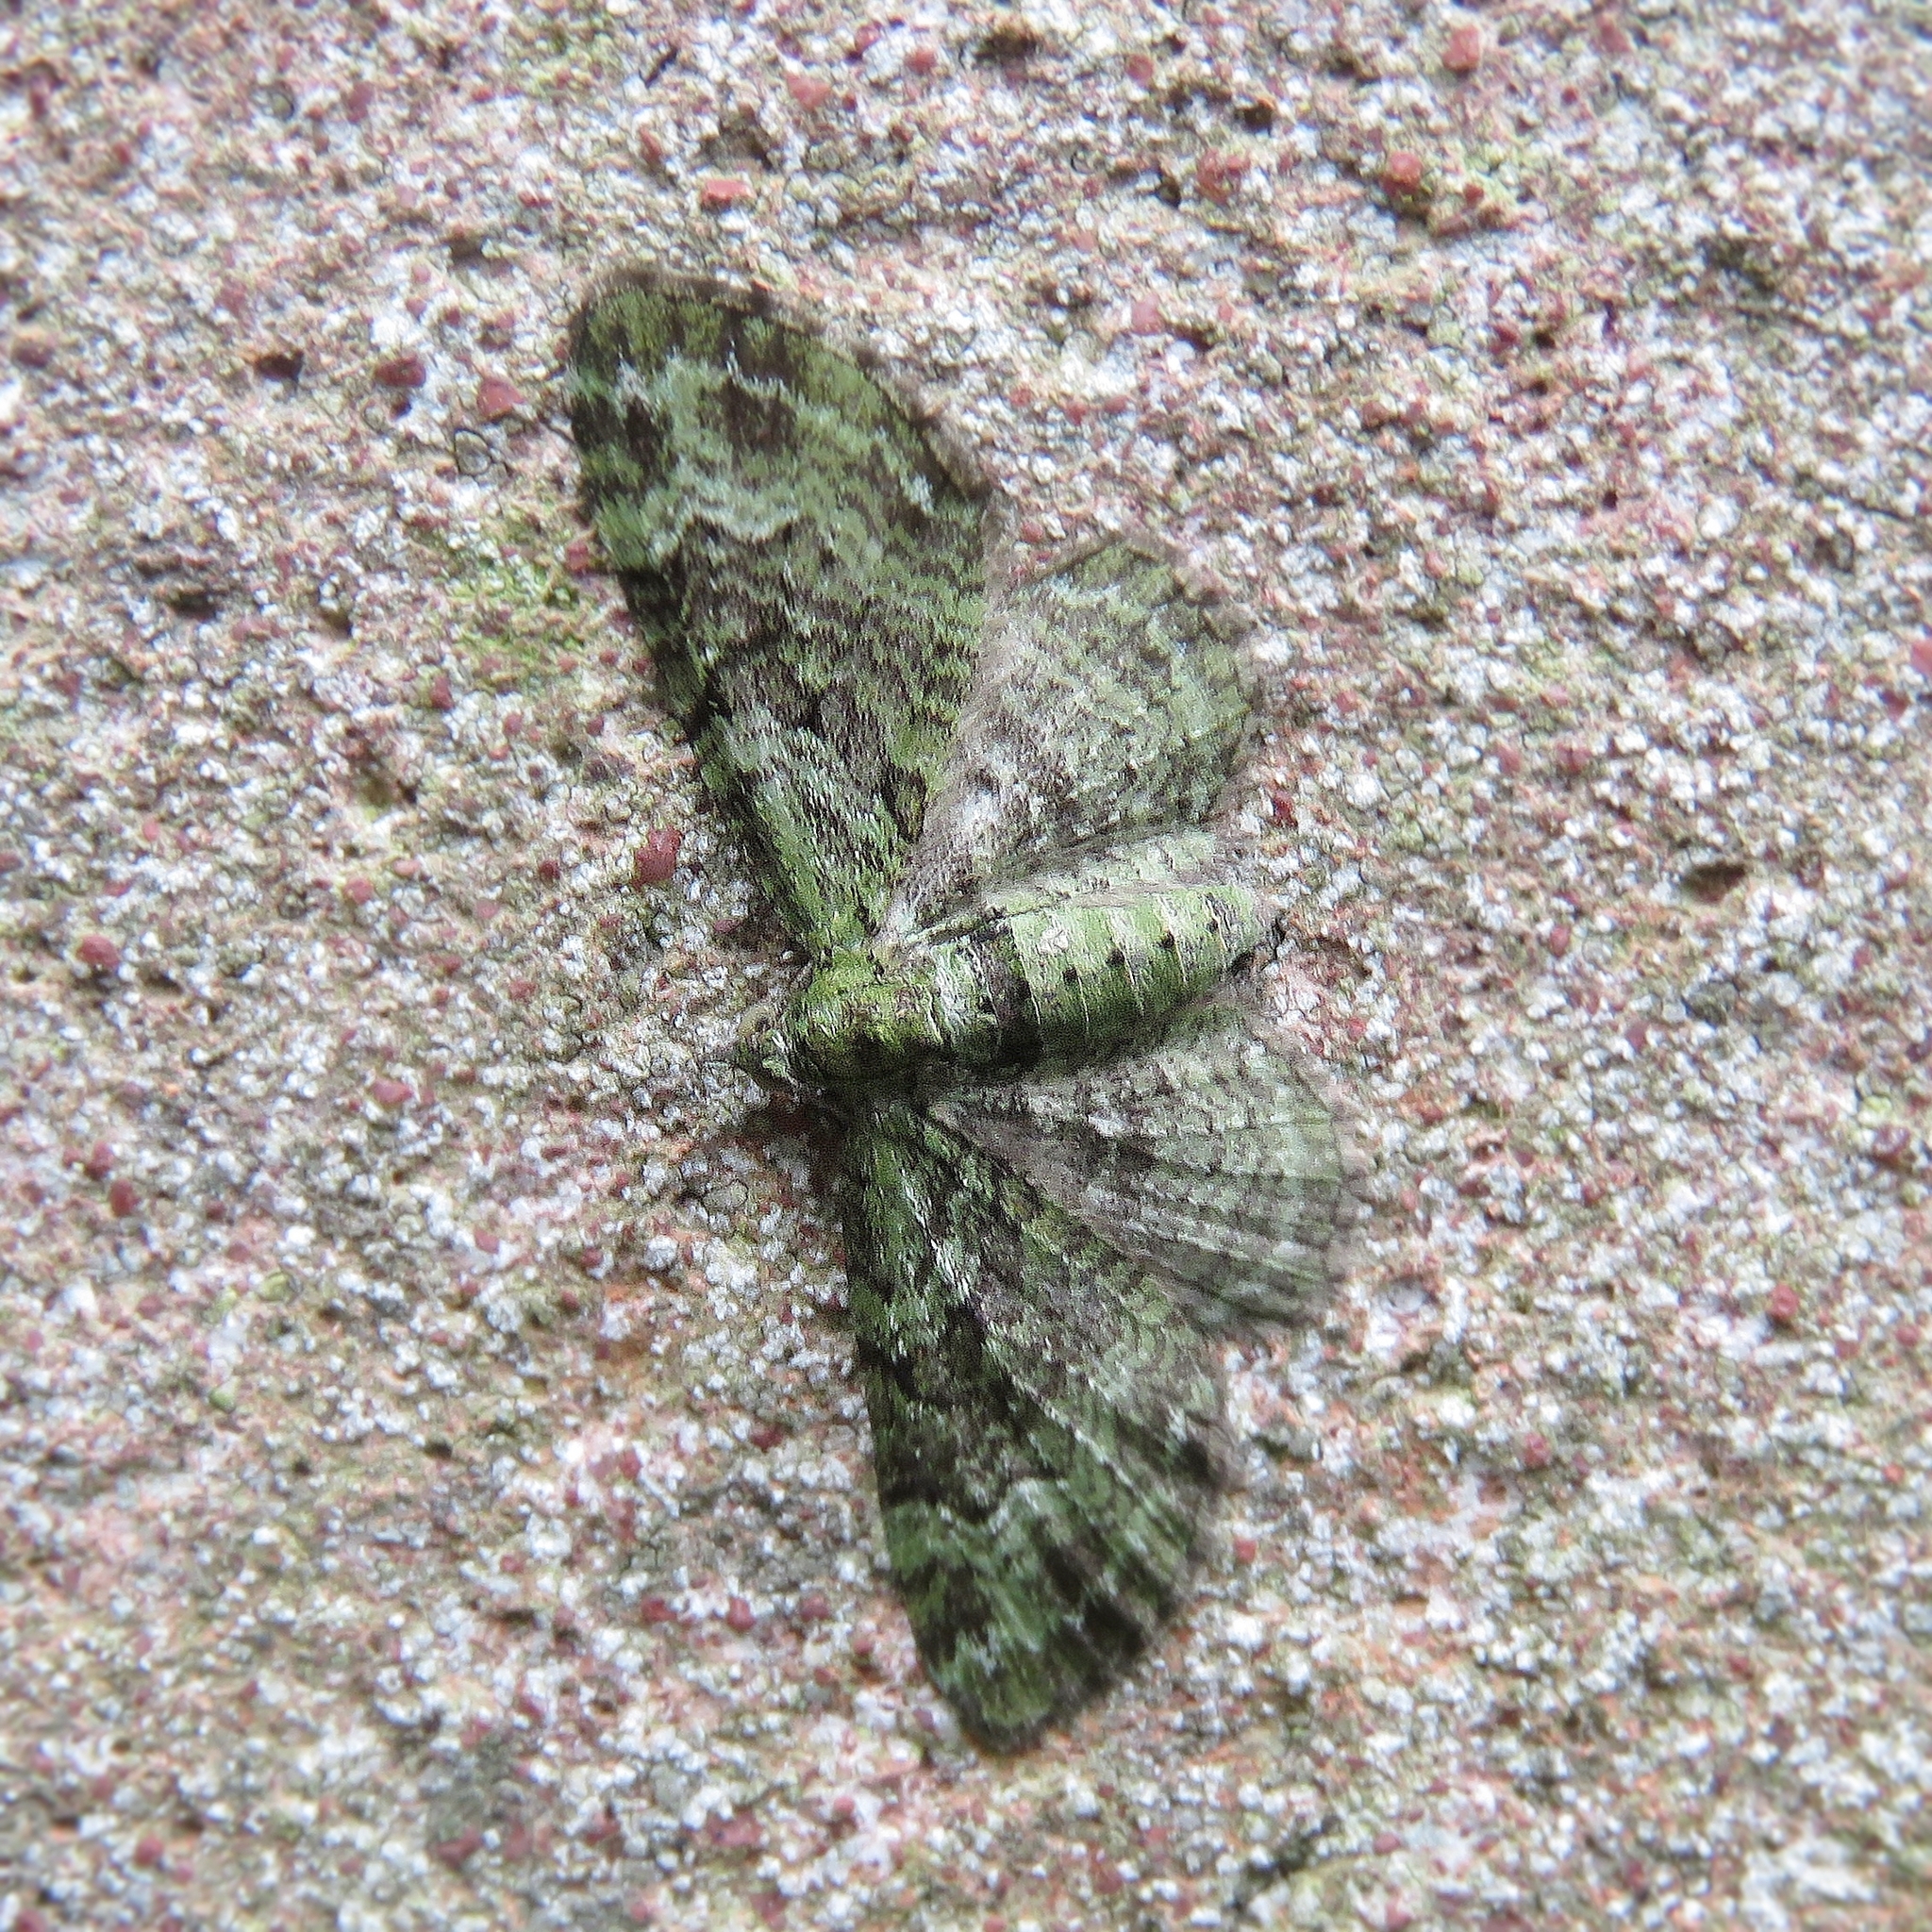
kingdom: Animalia
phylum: Arthropoda
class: Insecta
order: Lepidoptera
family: Geometridae
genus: Pasiphila
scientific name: Pasiphila rectangulata
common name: Green pug
